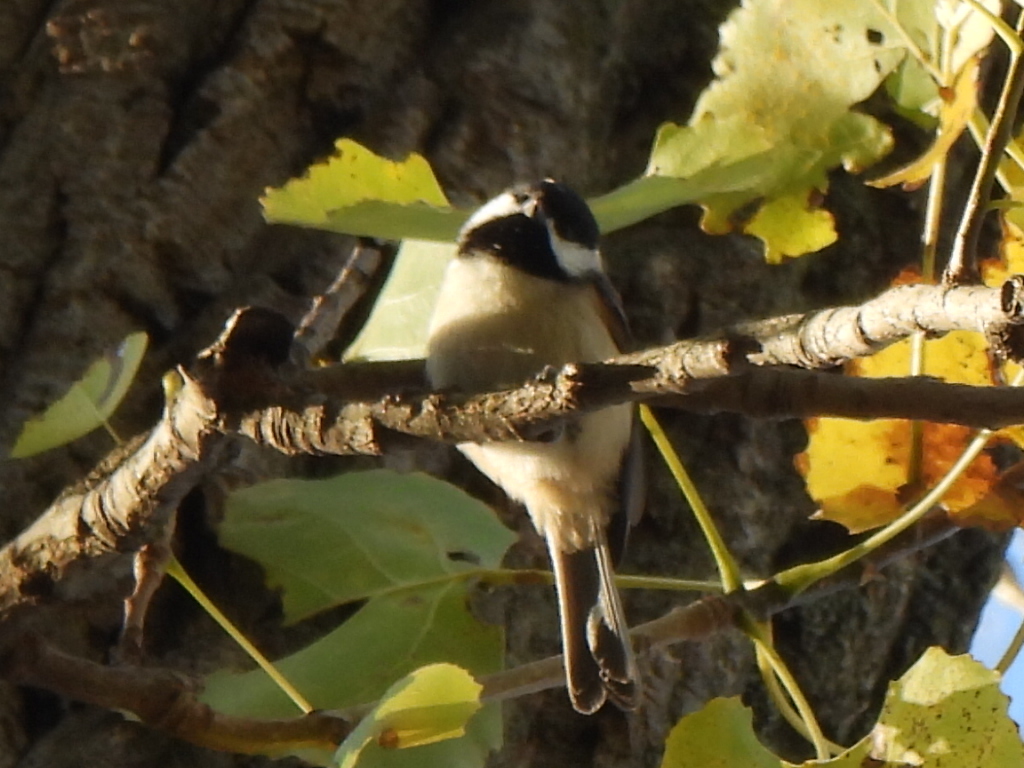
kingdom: Animalia
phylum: Chordata
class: Aves
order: Passeriformes
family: Paridae
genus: Poecile
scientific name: Poecile carolinensis
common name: Carolina chickadee
